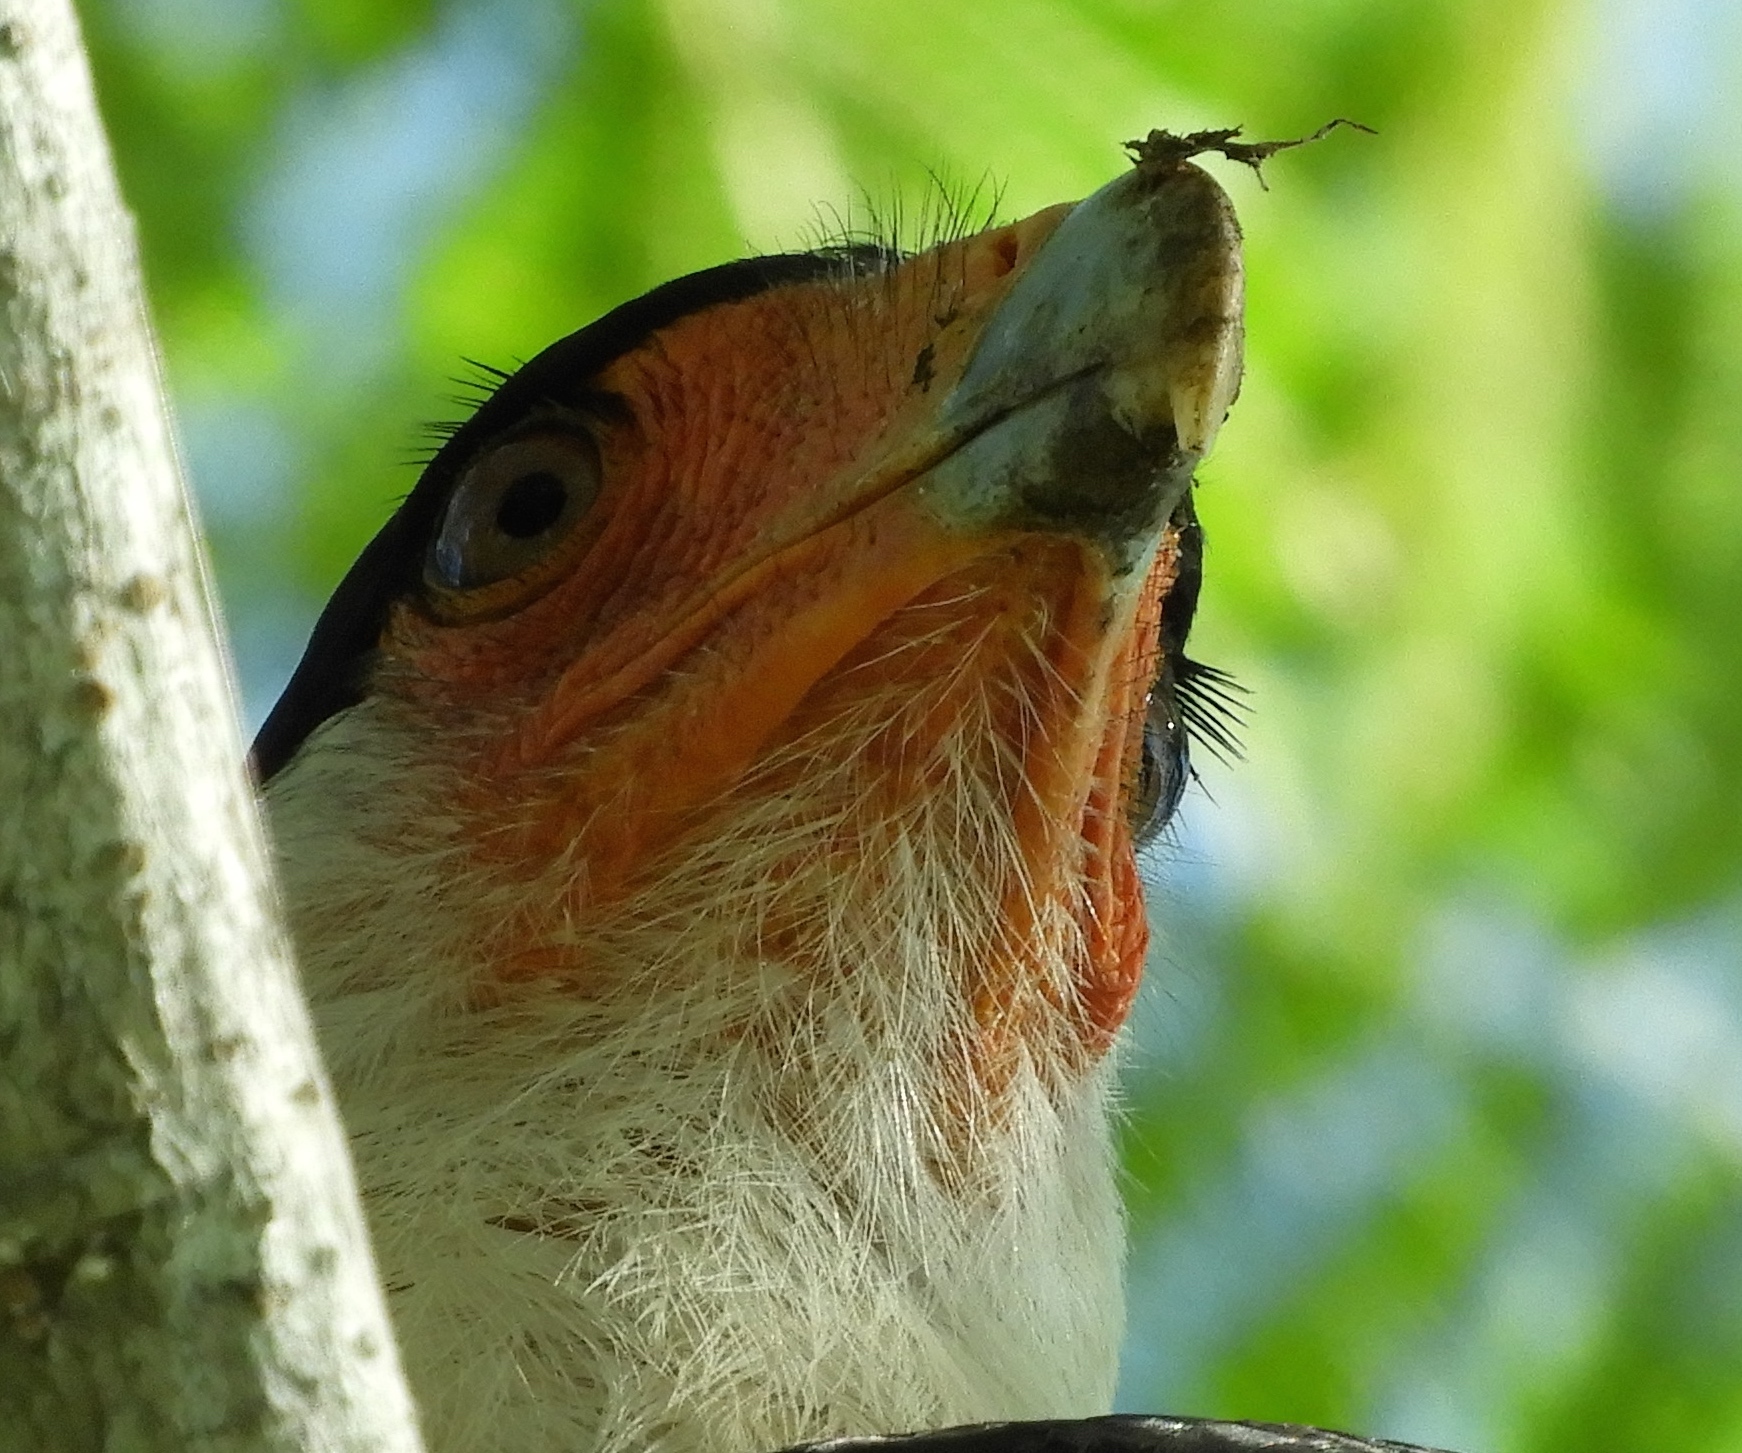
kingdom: Animalia
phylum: Chordata
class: Aves
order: Falconiformes
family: Falconidae
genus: Caracara
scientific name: Caracara plancus
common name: Southern caracara
